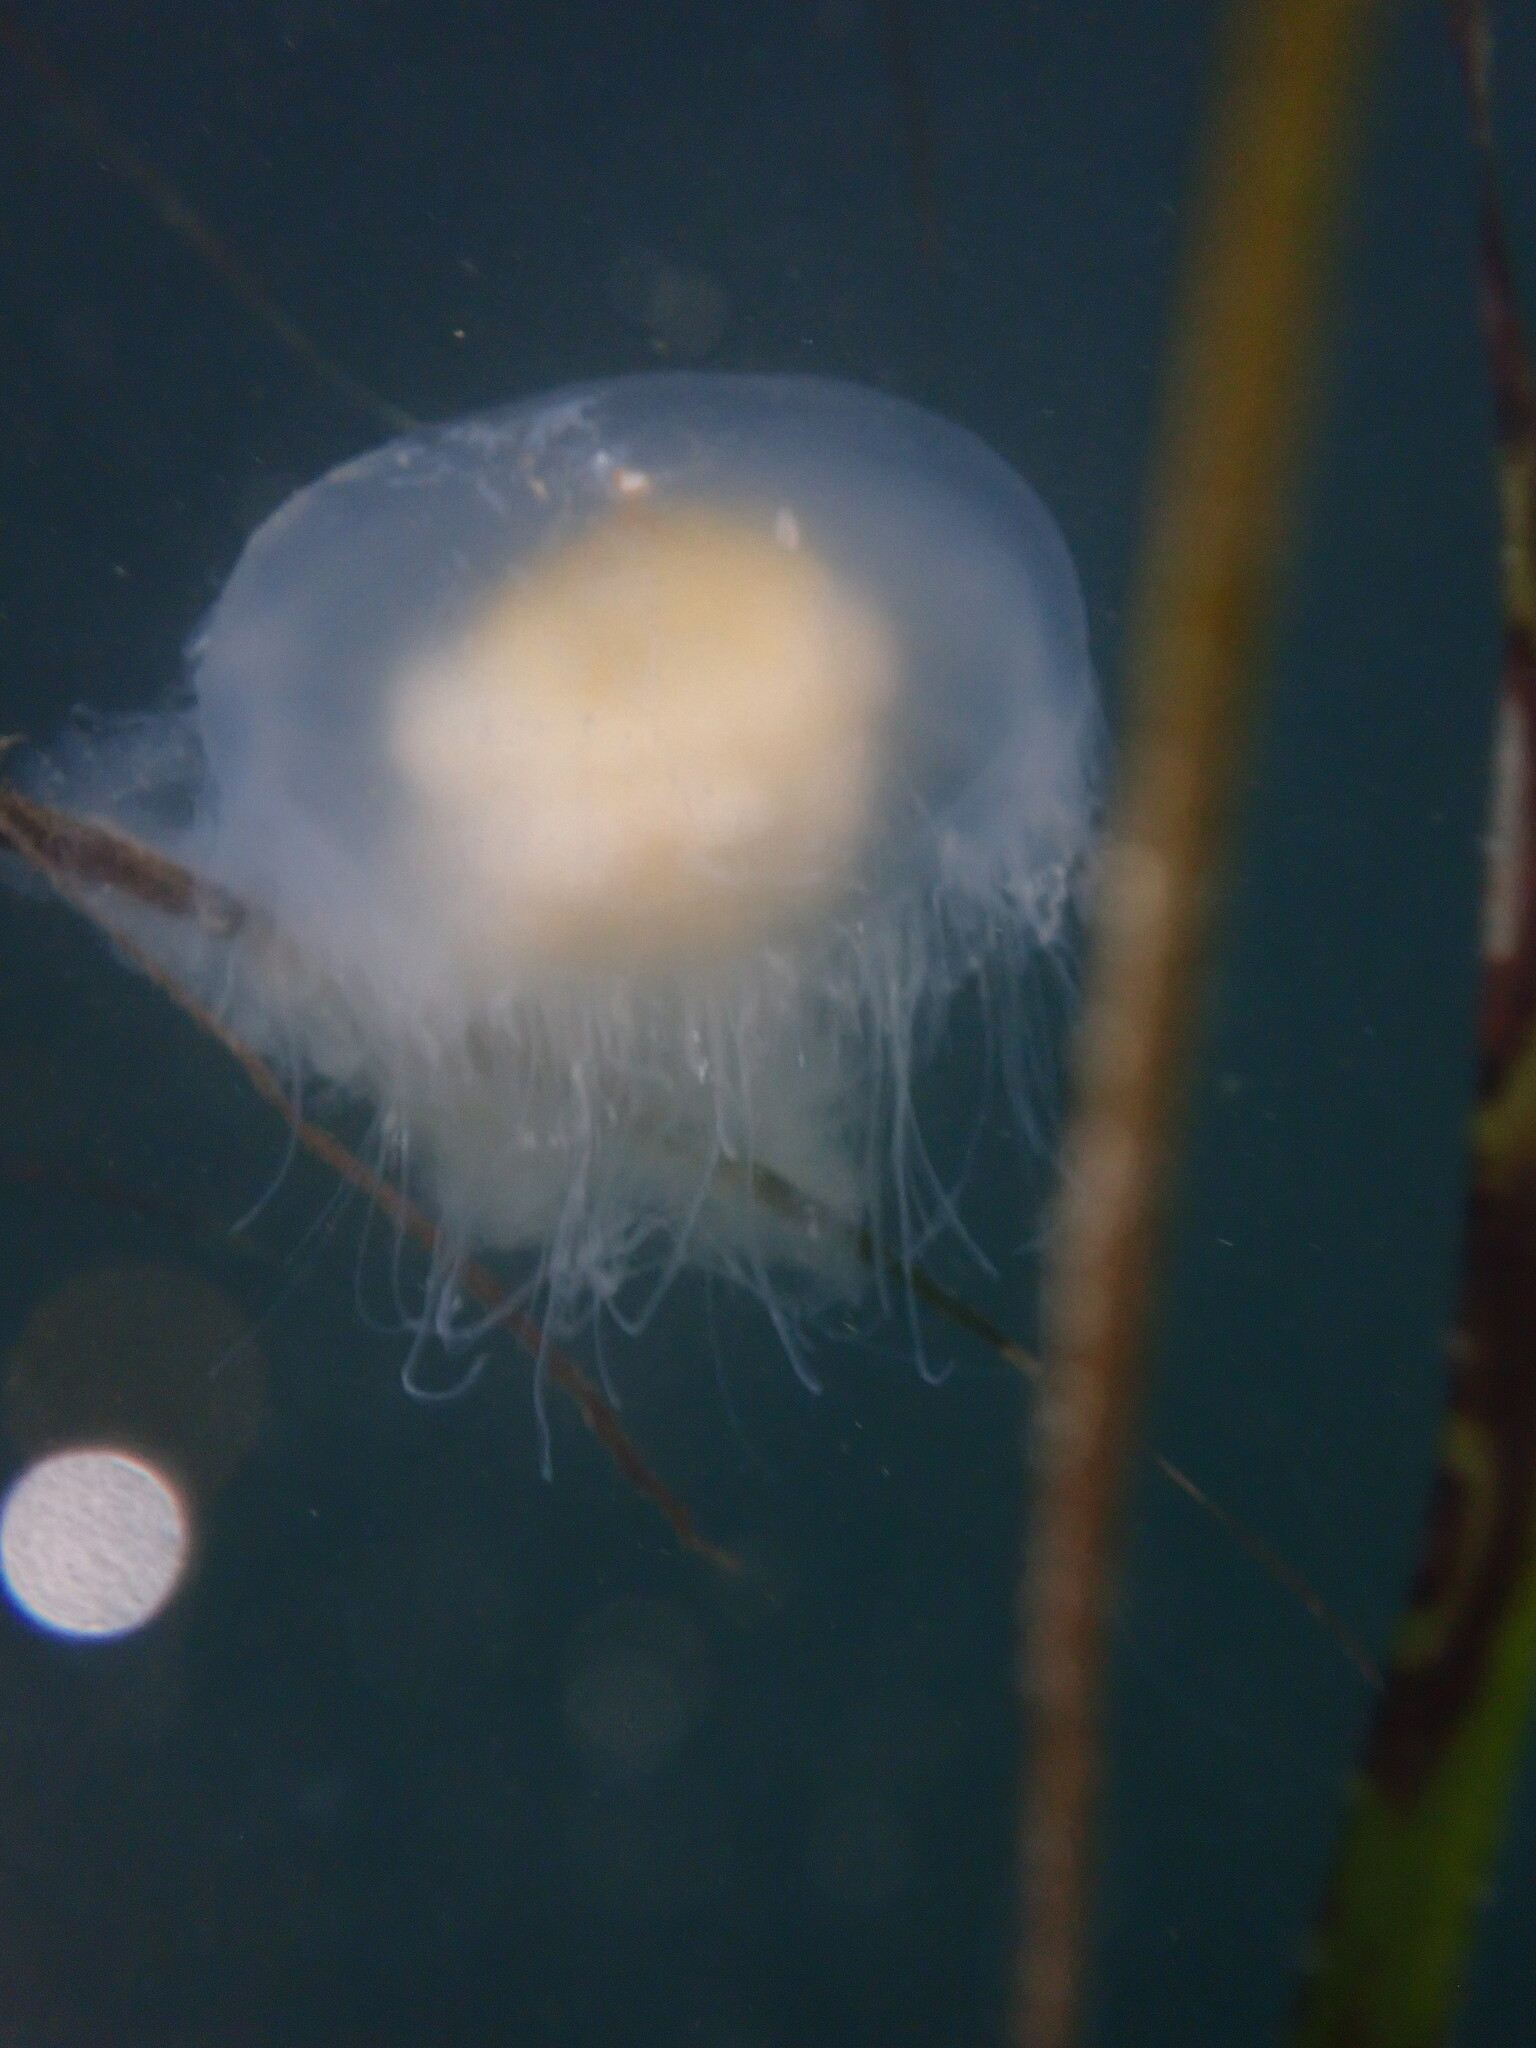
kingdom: Animalia
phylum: Cnidaria
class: Scyphozoa
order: Semaeostomeae
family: Phacellophoridae
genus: Phacellophora
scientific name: Phacellophora camtschatica
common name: Fried-egg jellyfish
